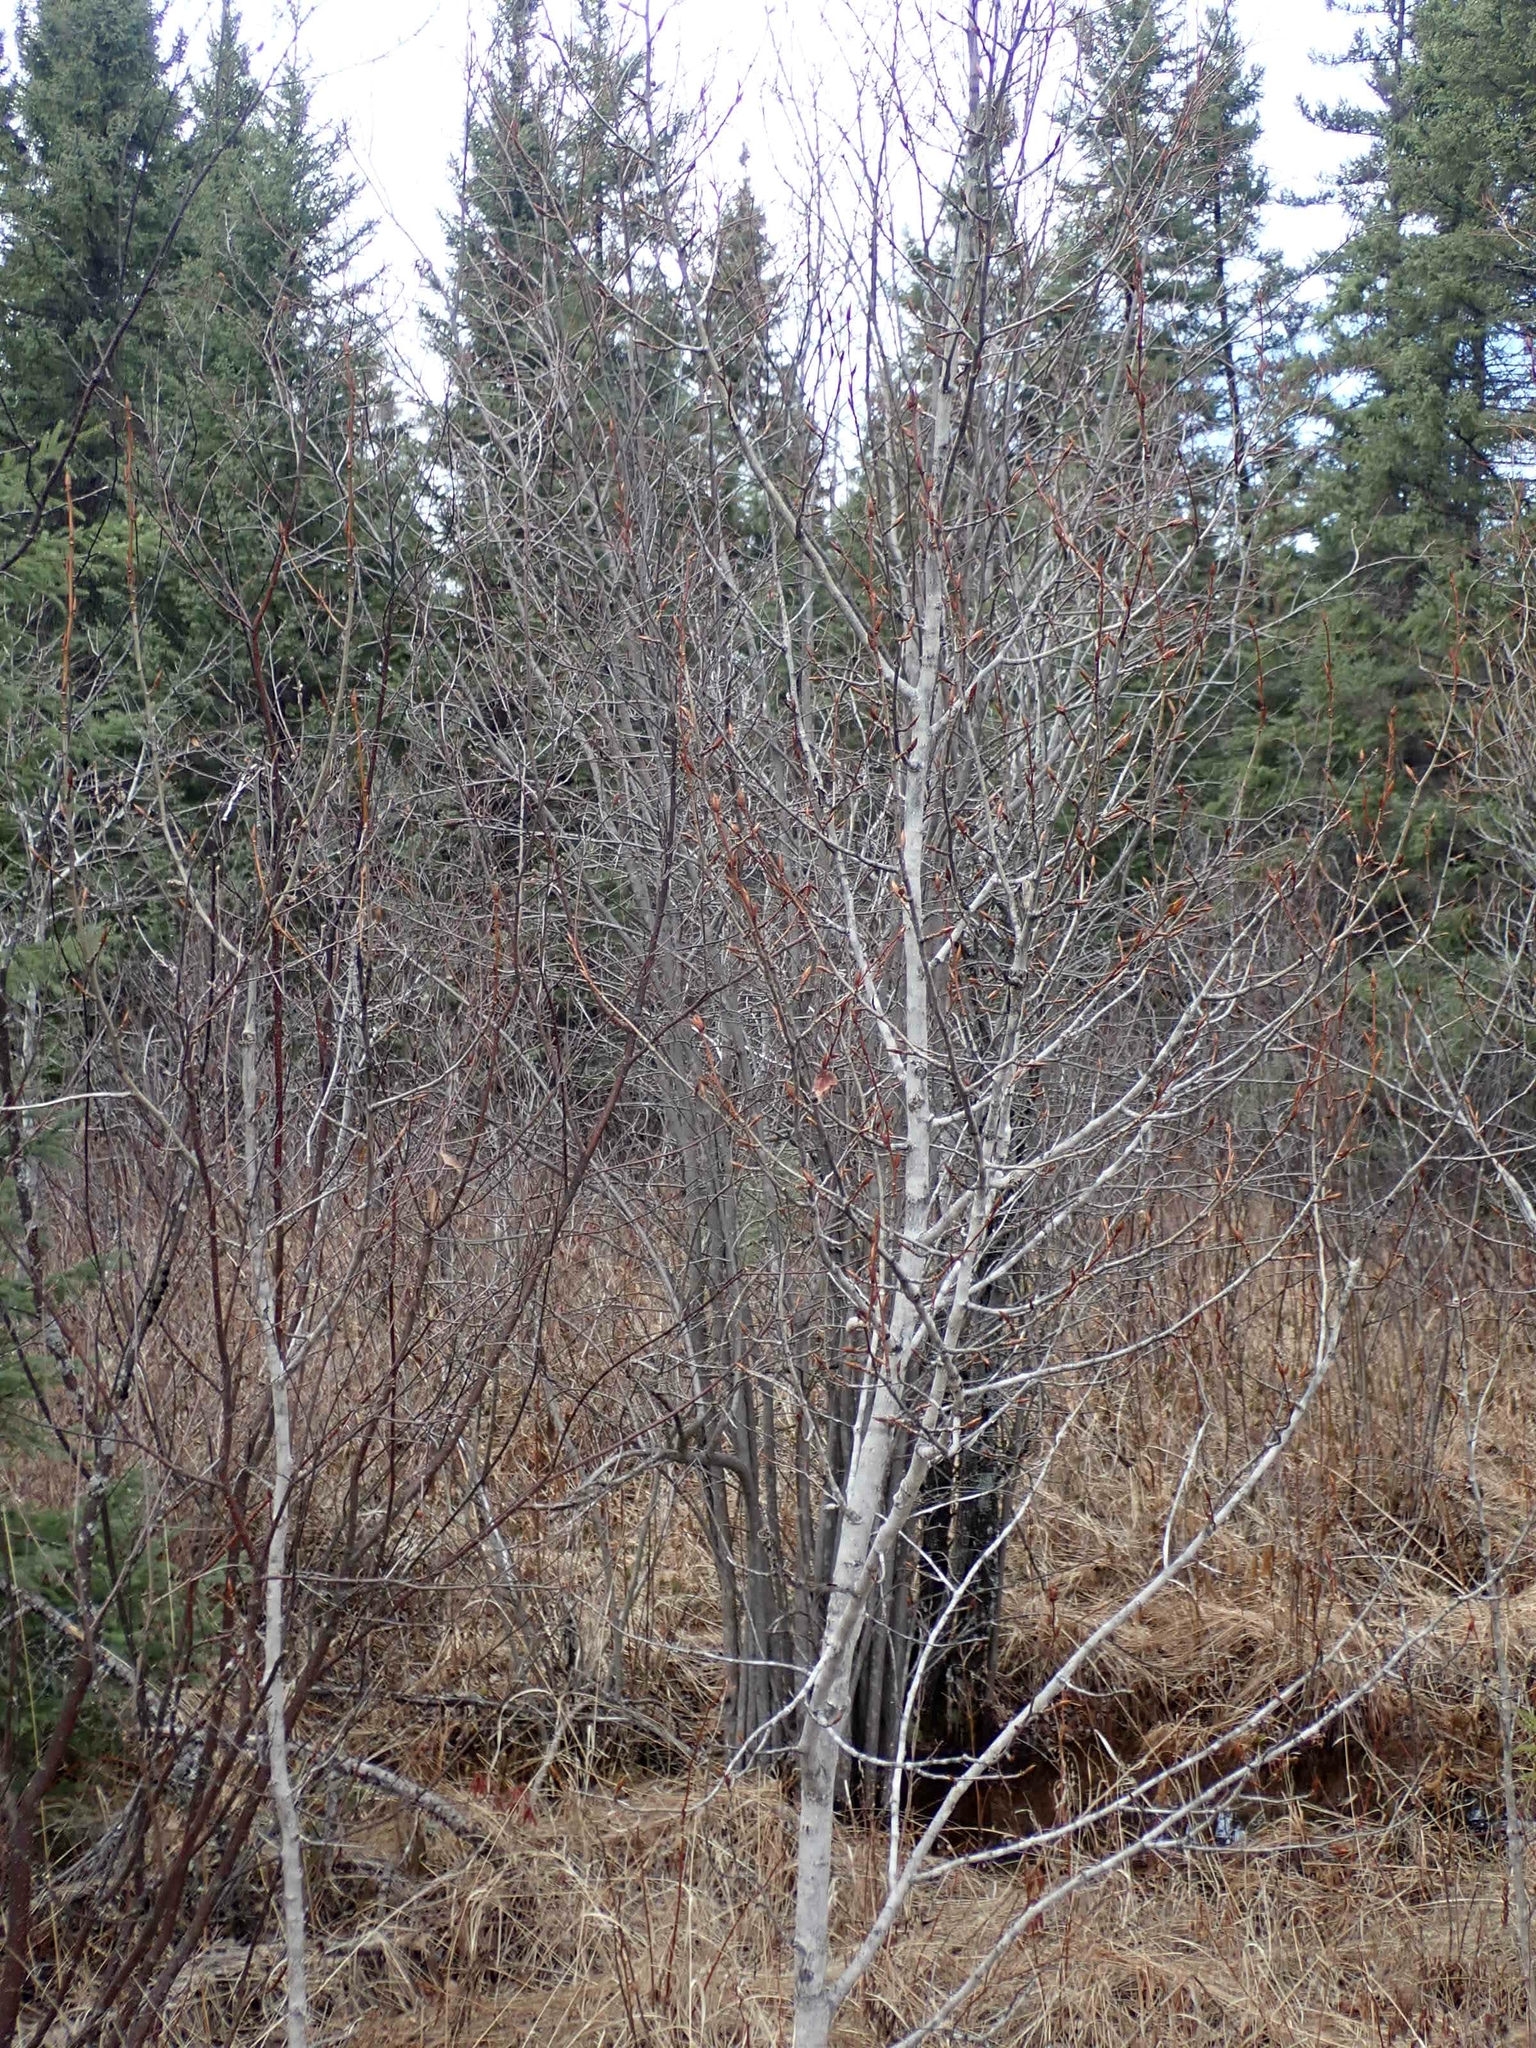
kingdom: Plantae
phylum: Tracheophyta
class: Magnoliopsida
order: Malpighiales
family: Salicaceae
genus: Populus
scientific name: Populus balsamifera
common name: Balsam poplar
